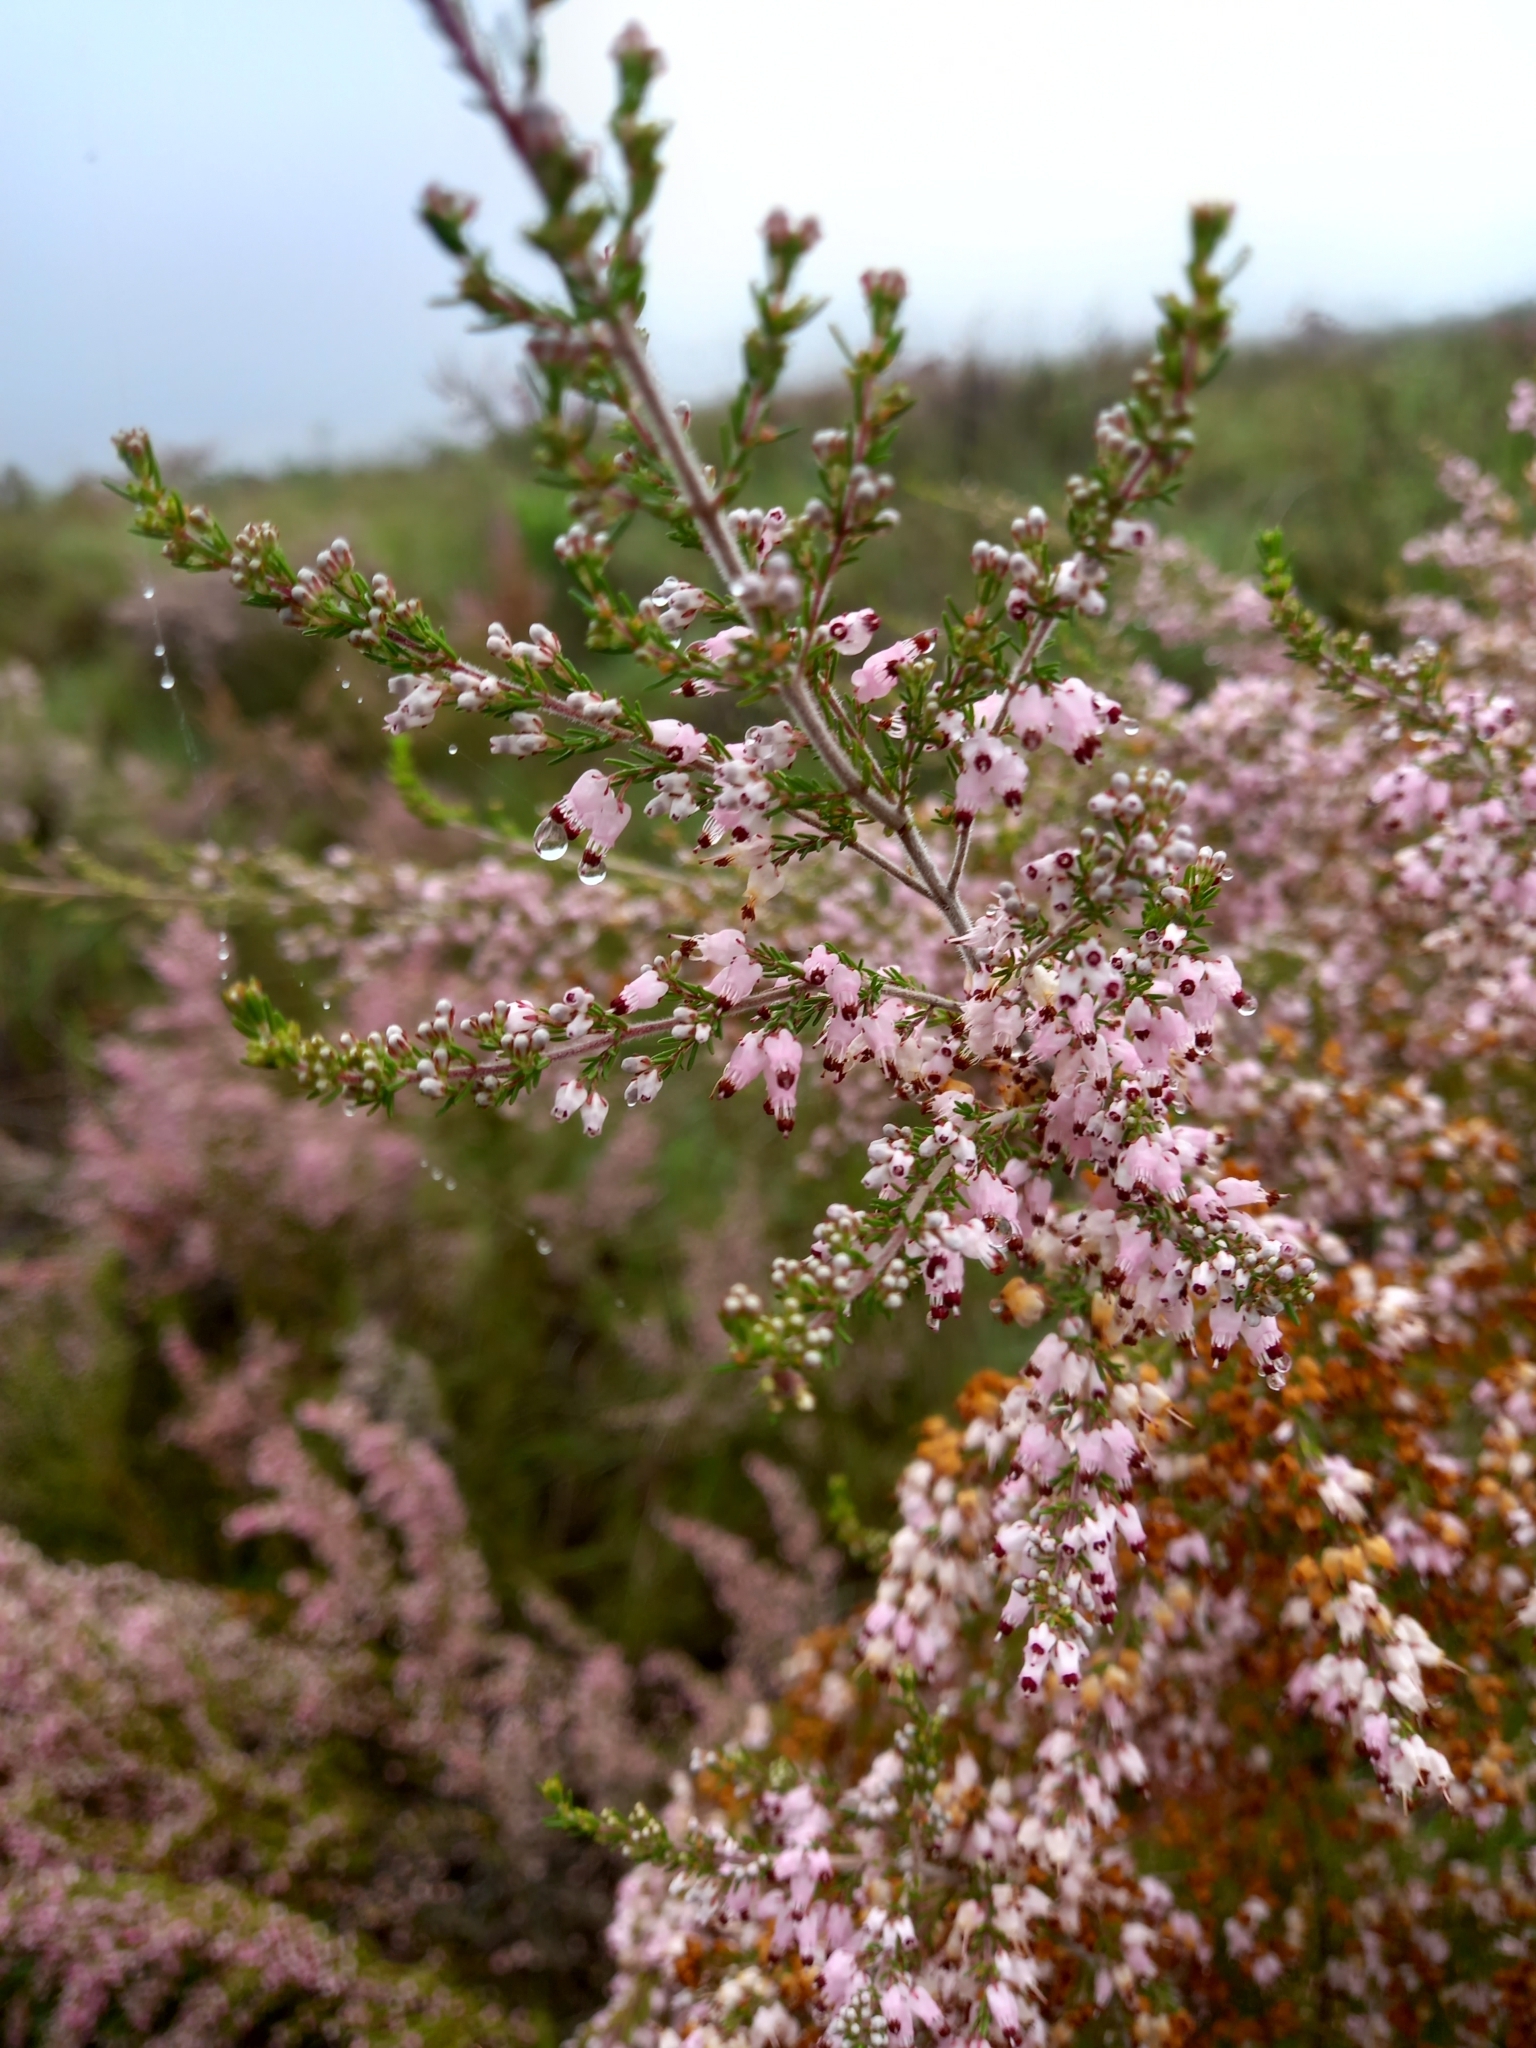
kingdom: Plantae
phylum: Tracheophyta
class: Magnoliopsida
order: Ericales
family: Ericaceae
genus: Erica
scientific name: Erica nutans
